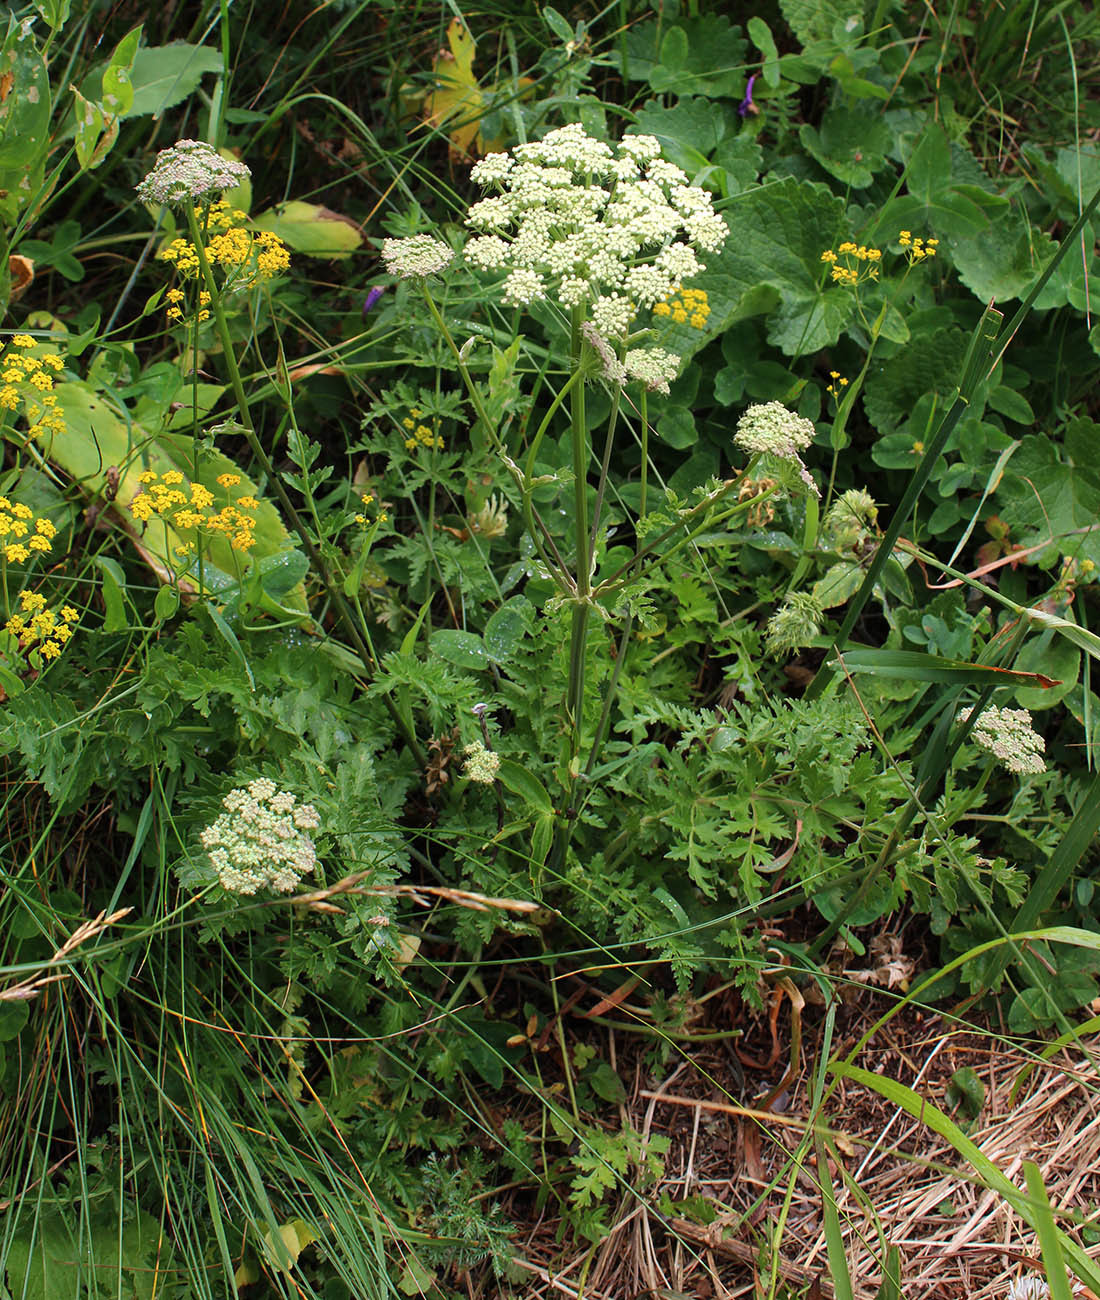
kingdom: Plantae
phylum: Tracheophyta
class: Magnoliopsida
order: Apiales
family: Apiaceae
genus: Laser
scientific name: Laser stevenii
